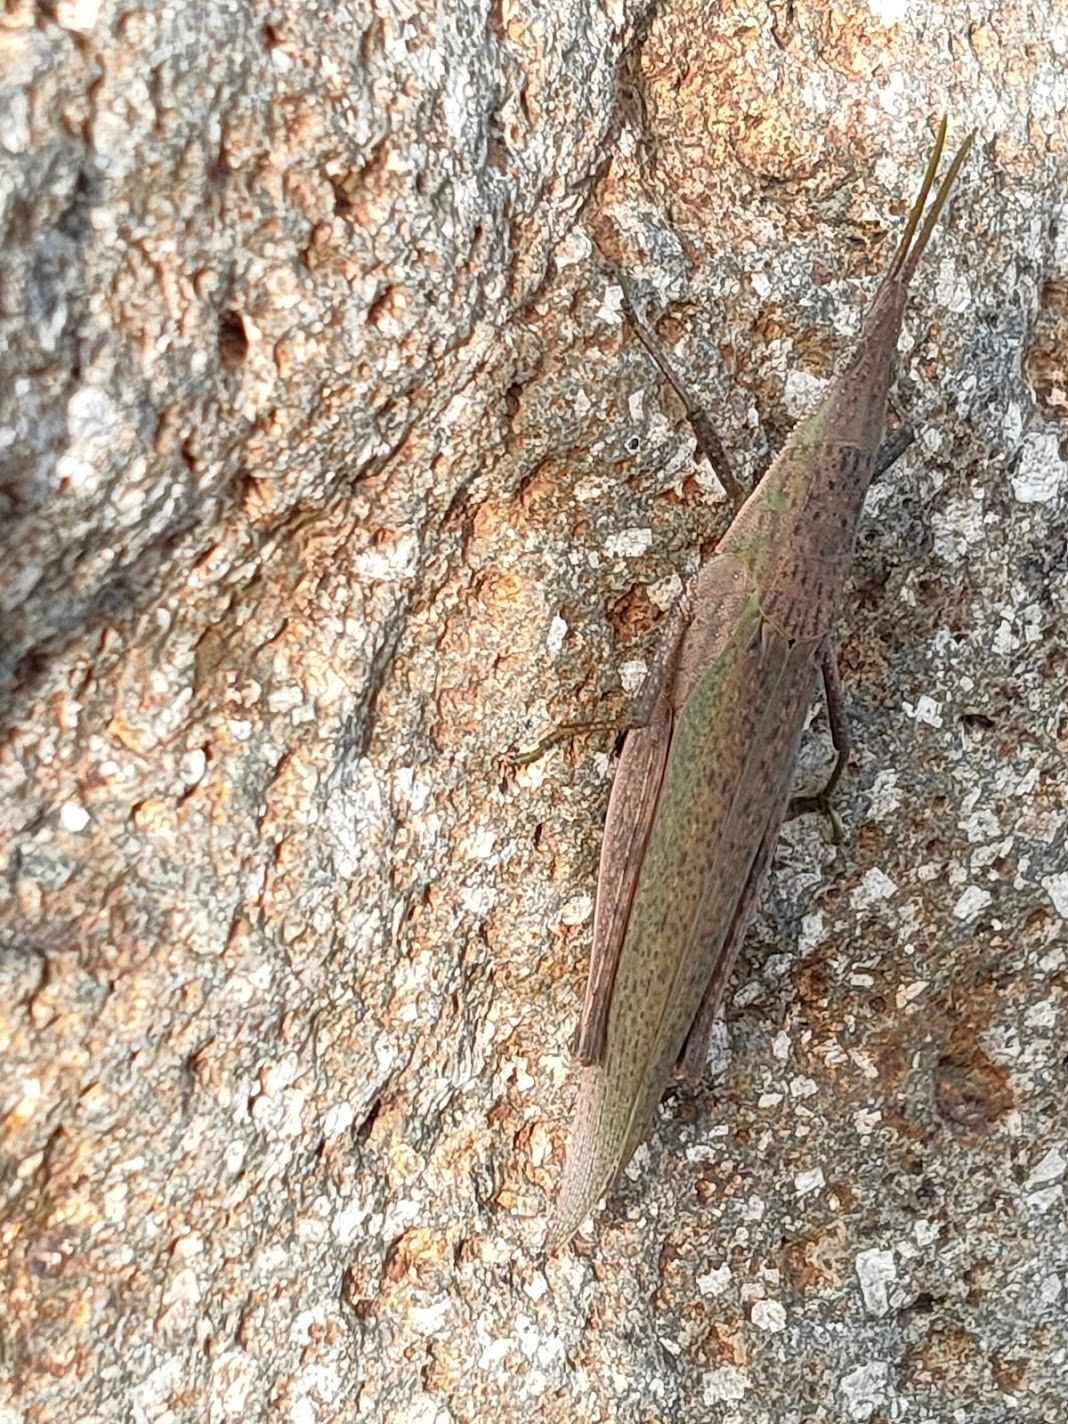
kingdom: Animalia
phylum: Arthropoda
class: Insecta
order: Orthoptera
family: Pyrgomorphidae
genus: Atractomorpha
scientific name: Atractomorpha lata
